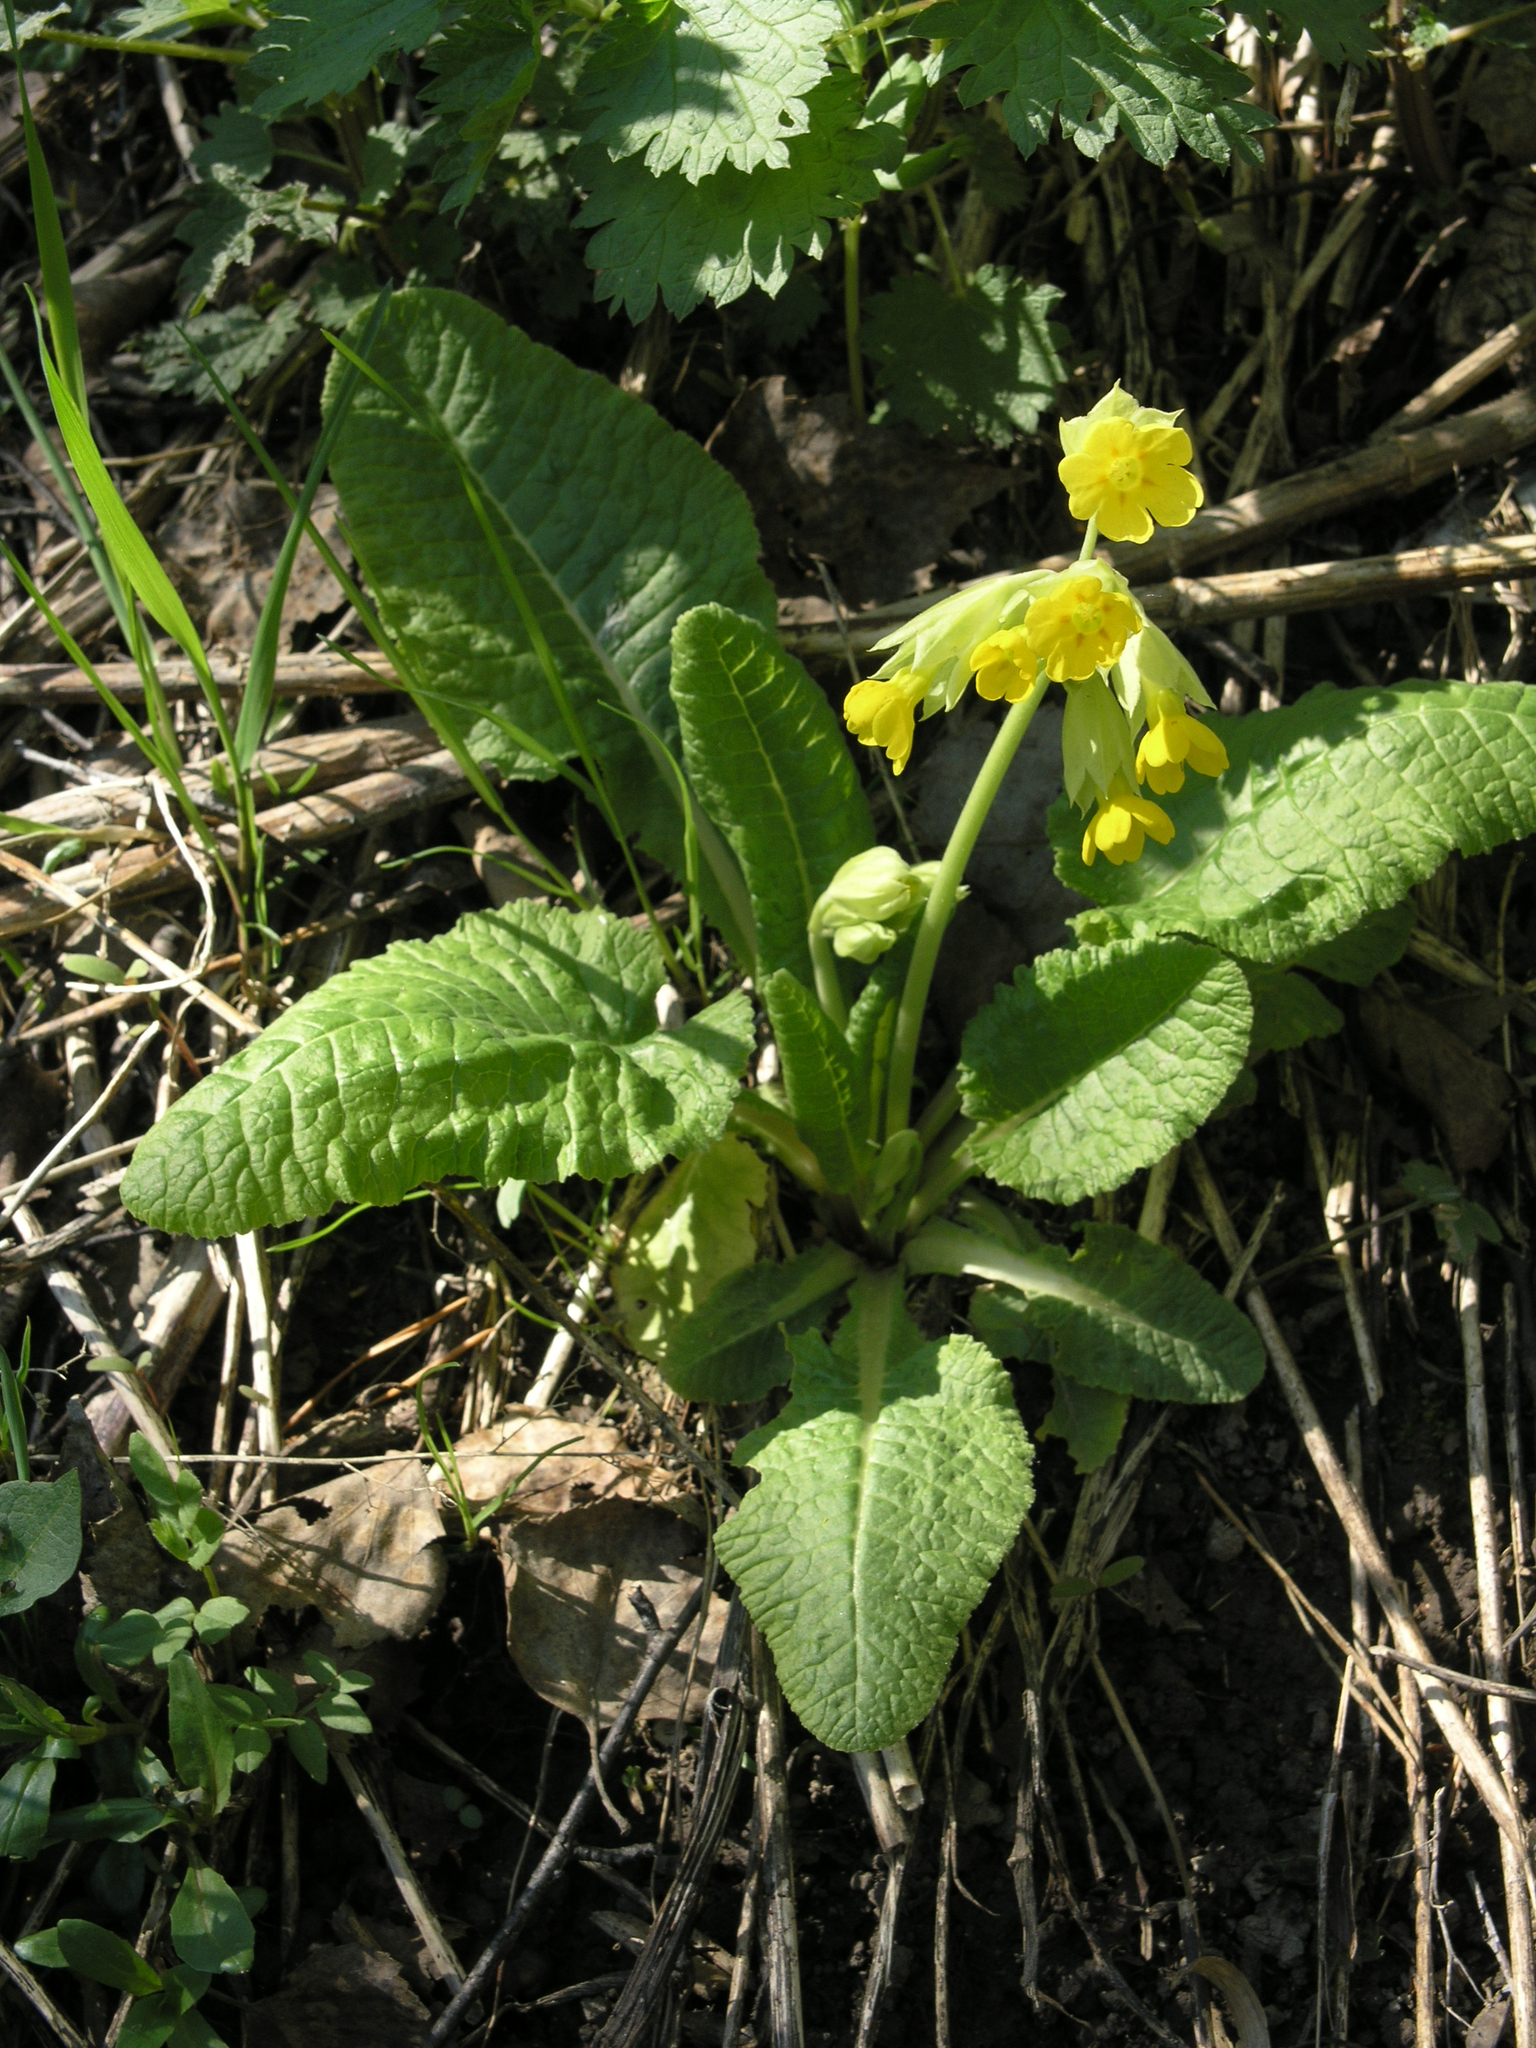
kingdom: Plantae
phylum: Tracheophyta
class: Magnoliopsida
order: Ericales
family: Primulaceae
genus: Primula
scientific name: Primula veris
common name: Cowslip
